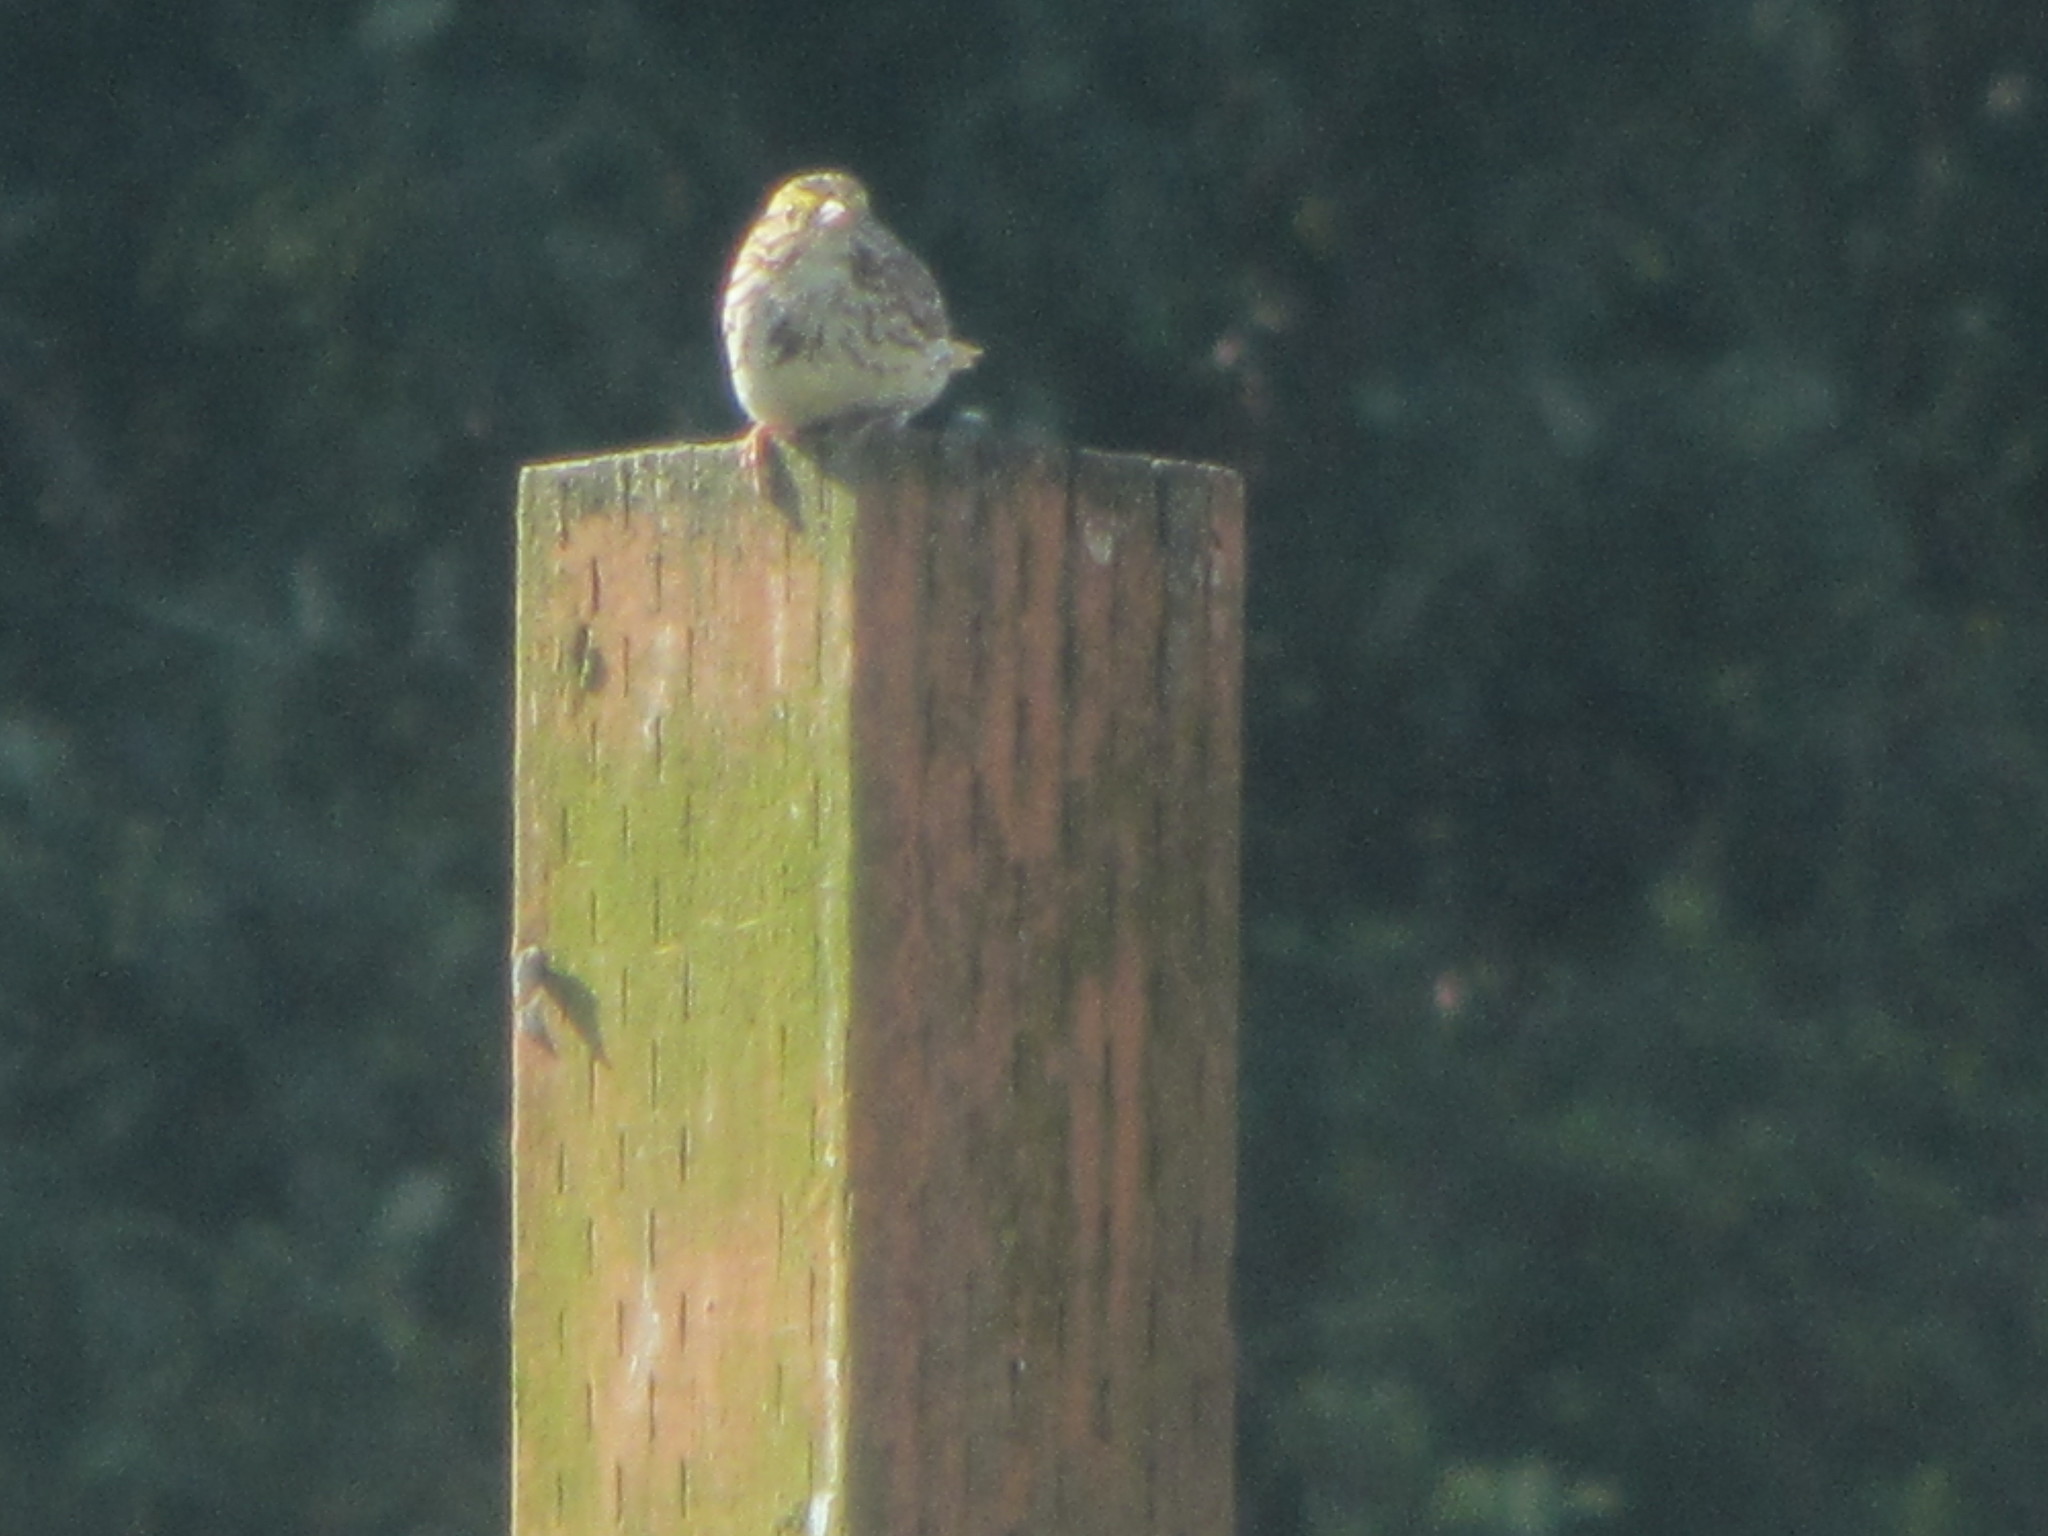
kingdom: Animalia
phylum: Chordata
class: Aves
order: Passeriformes
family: Passerellidae
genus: Passerculus
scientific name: Passerculus sandwichensis
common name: Savannah sparrow
